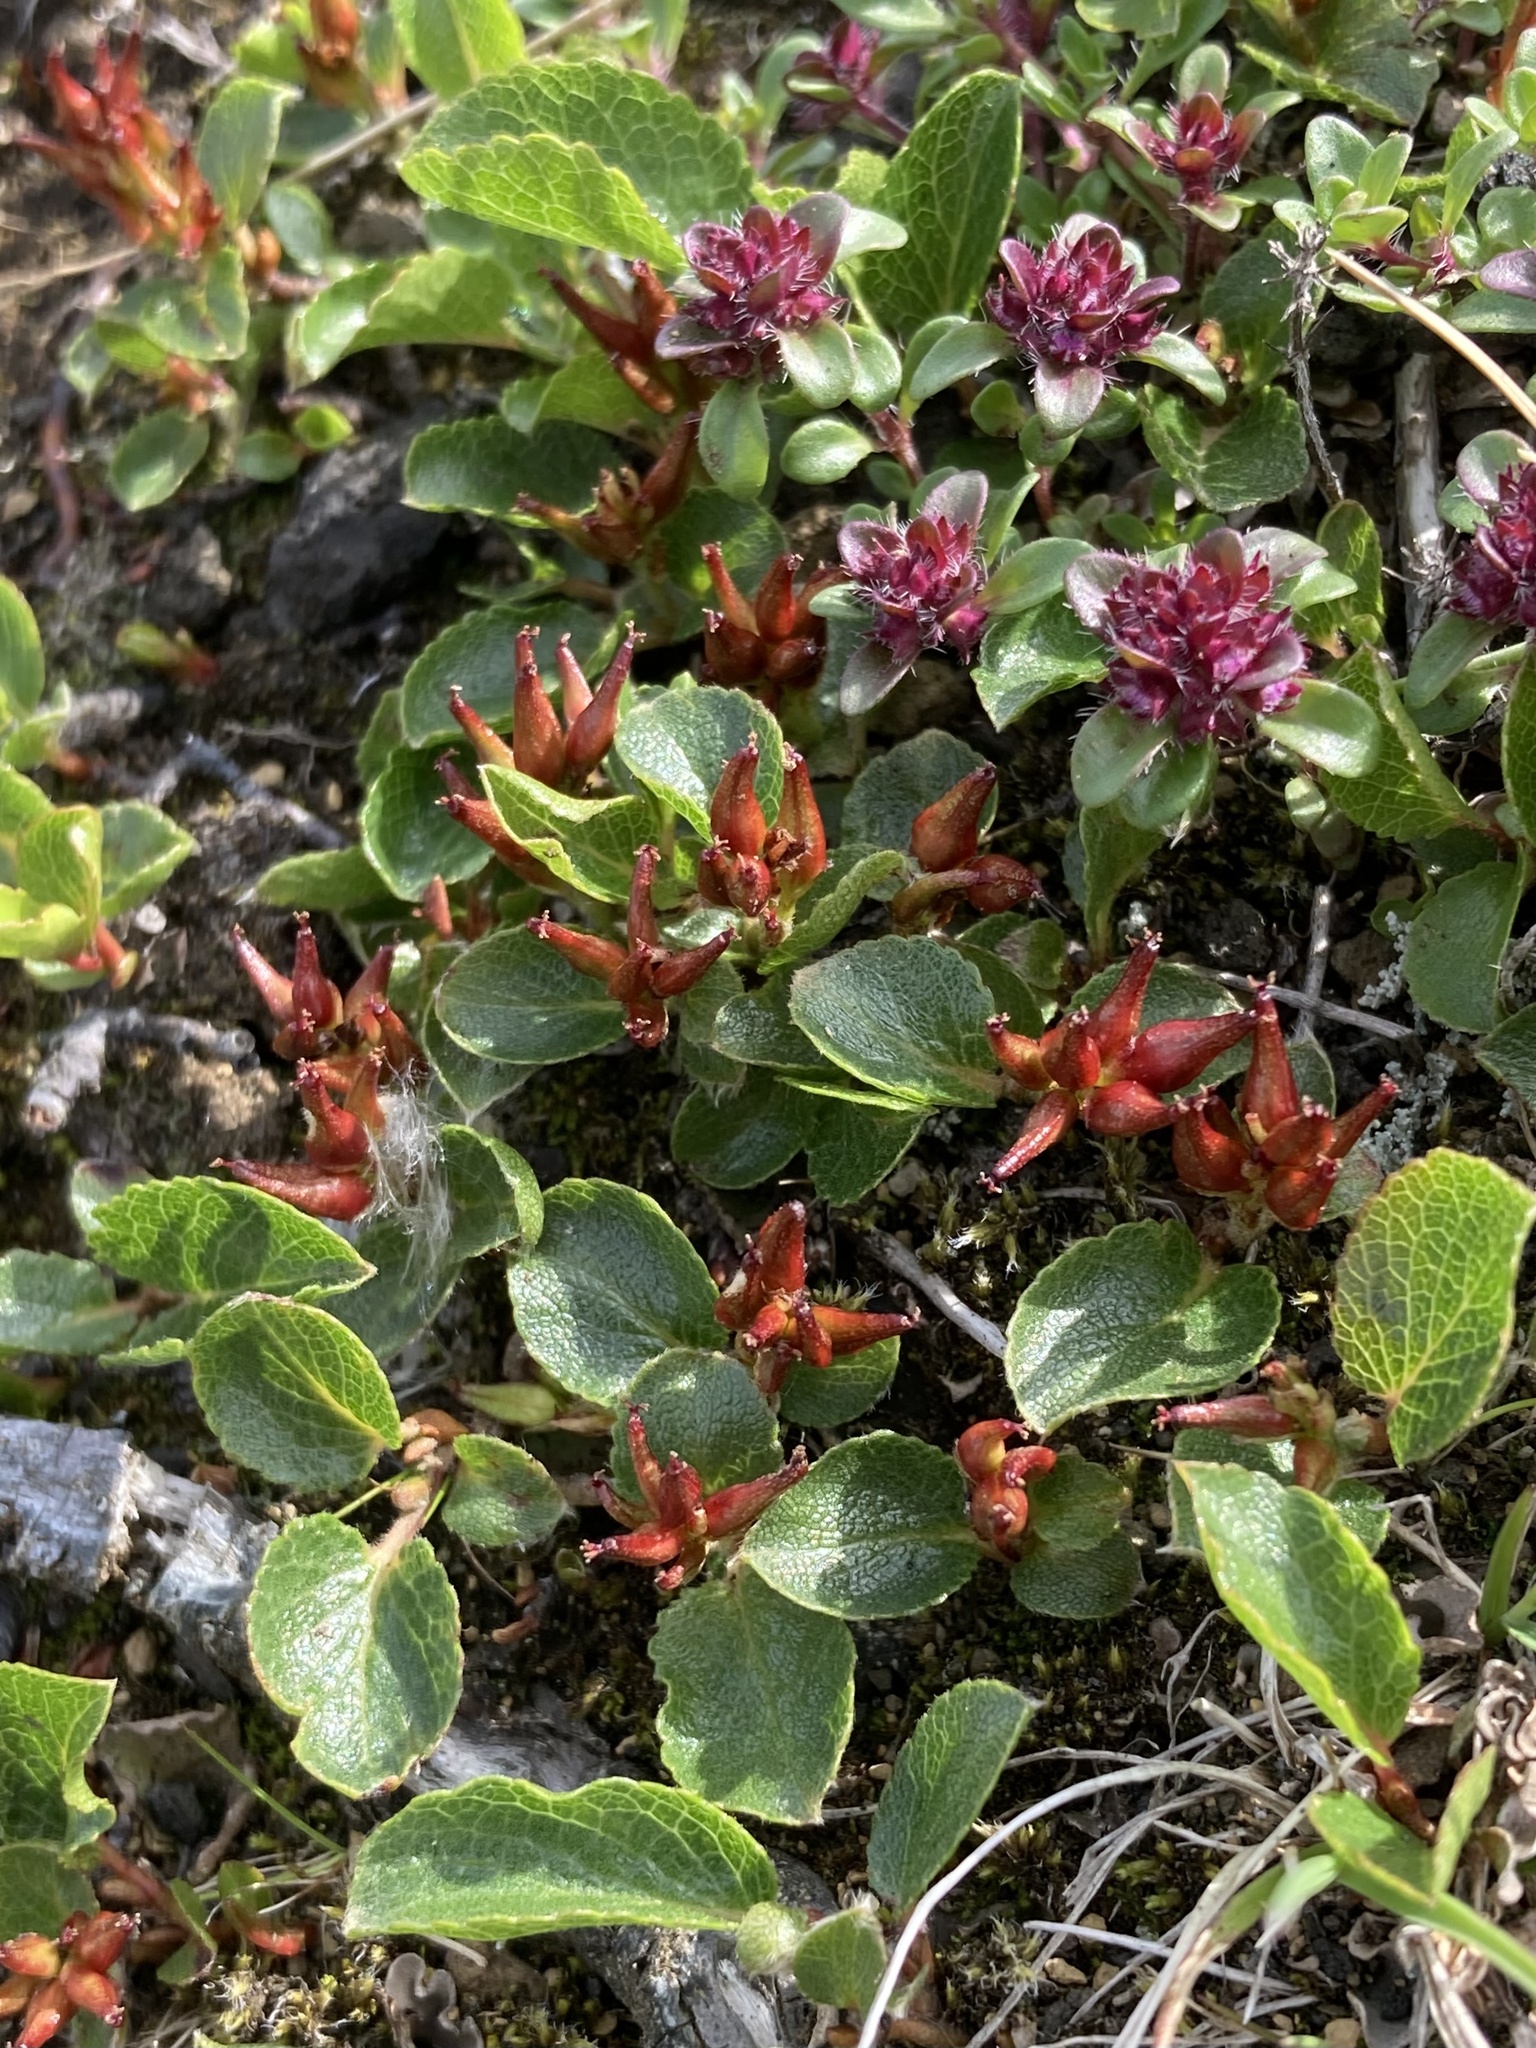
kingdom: Plantae
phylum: Tracheophyta
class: Magnoliopsida
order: Malpighiales
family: Salicaceae
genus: Salix
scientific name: Salix herbacea
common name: Dwarf willow
